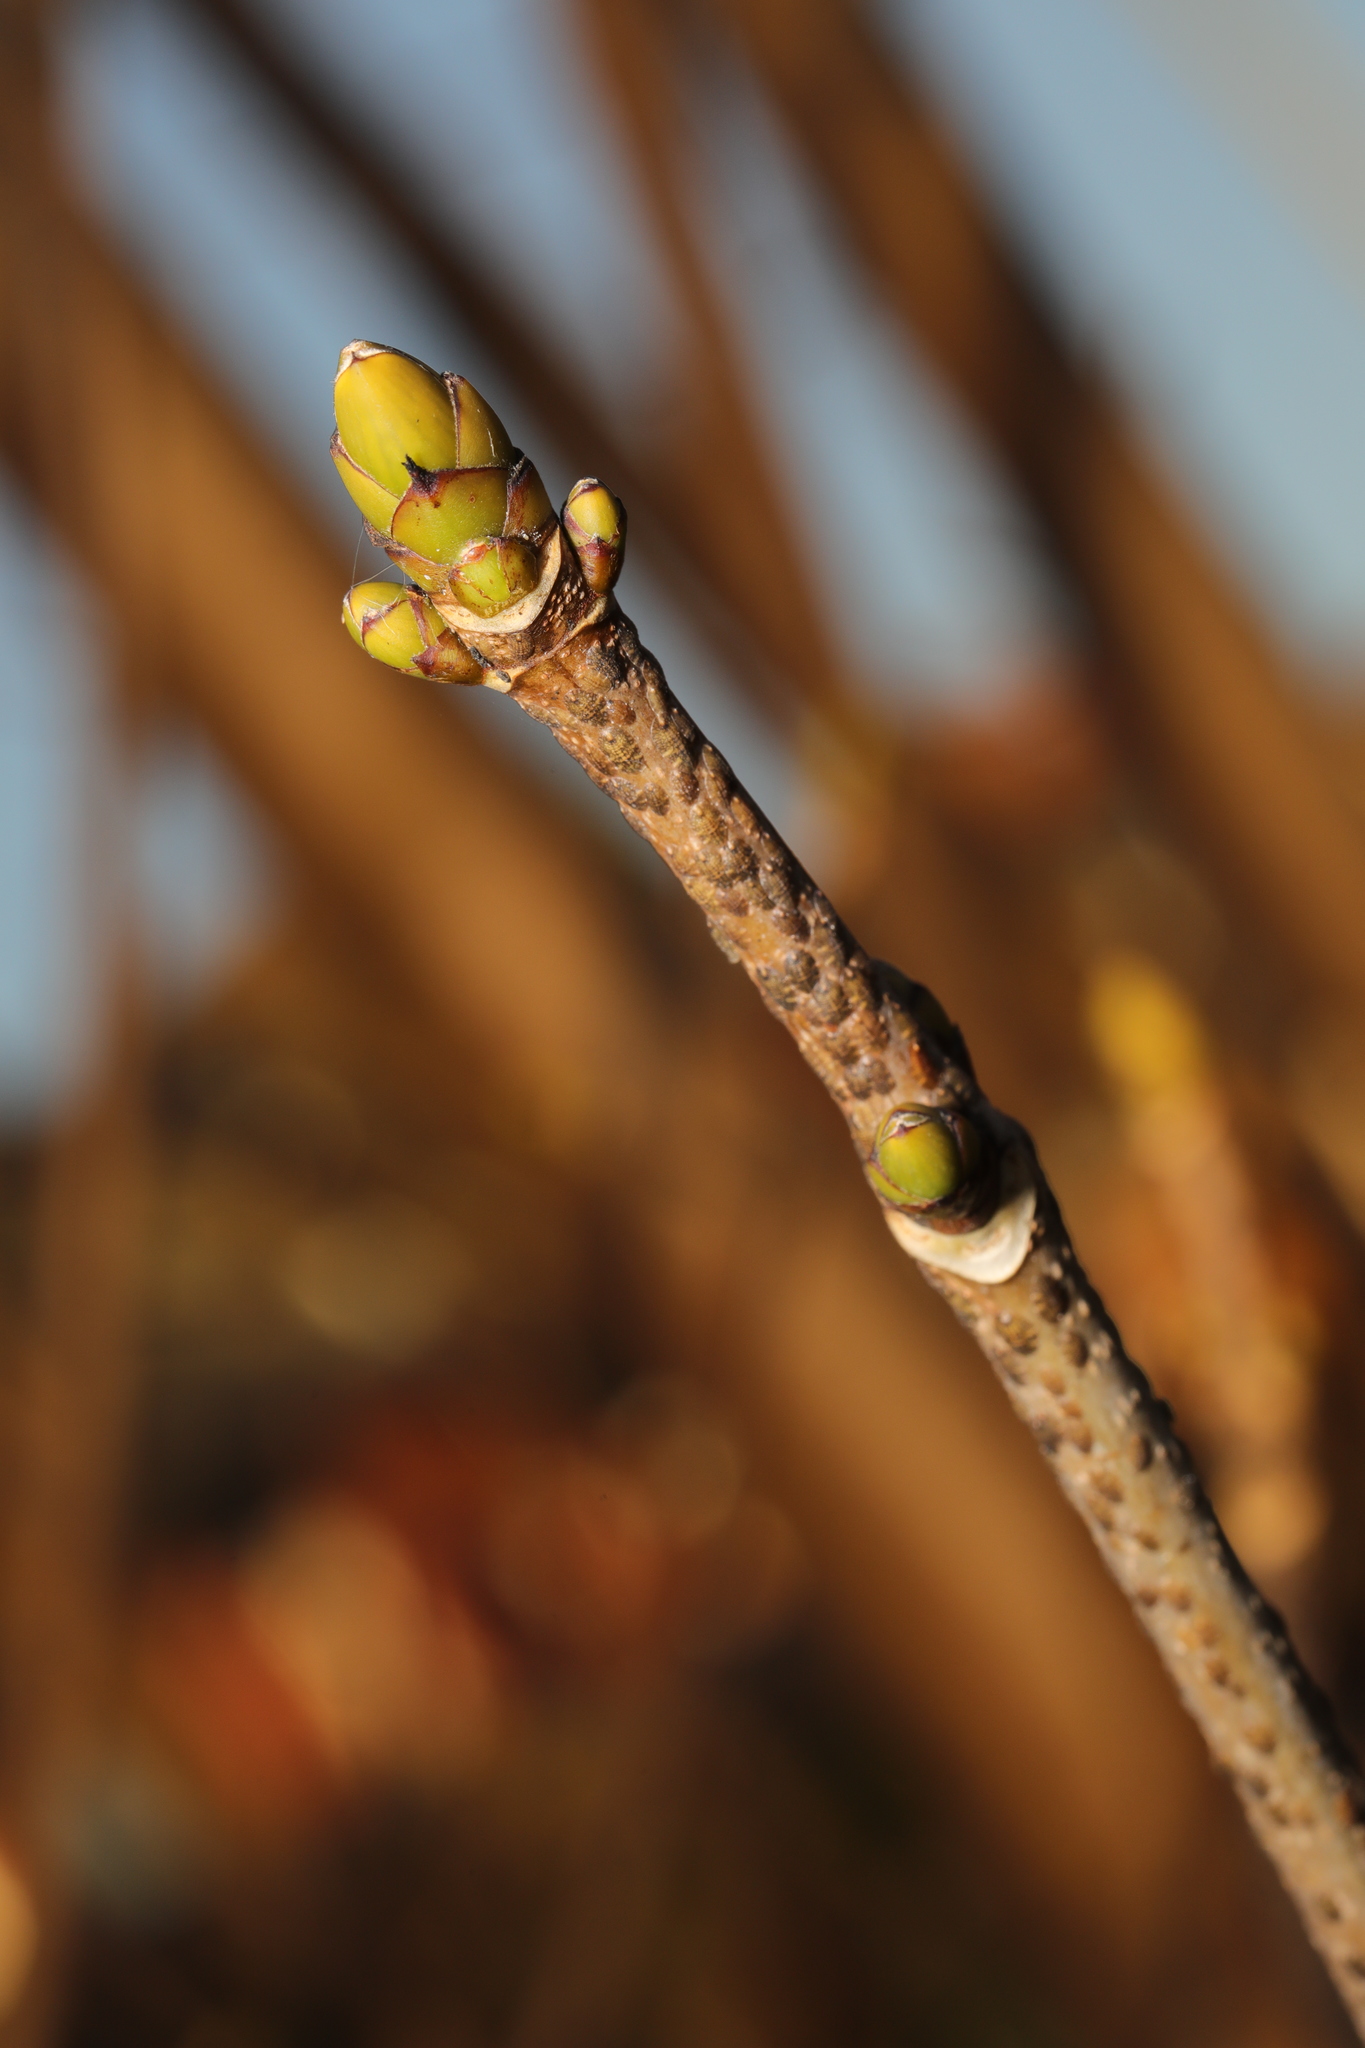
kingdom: Plantae
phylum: Tracheophyta
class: Magnoliopsida
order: Sapindales
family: Sapindaceae
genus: Acer
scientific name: Acer platanoides
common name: Norway maple
